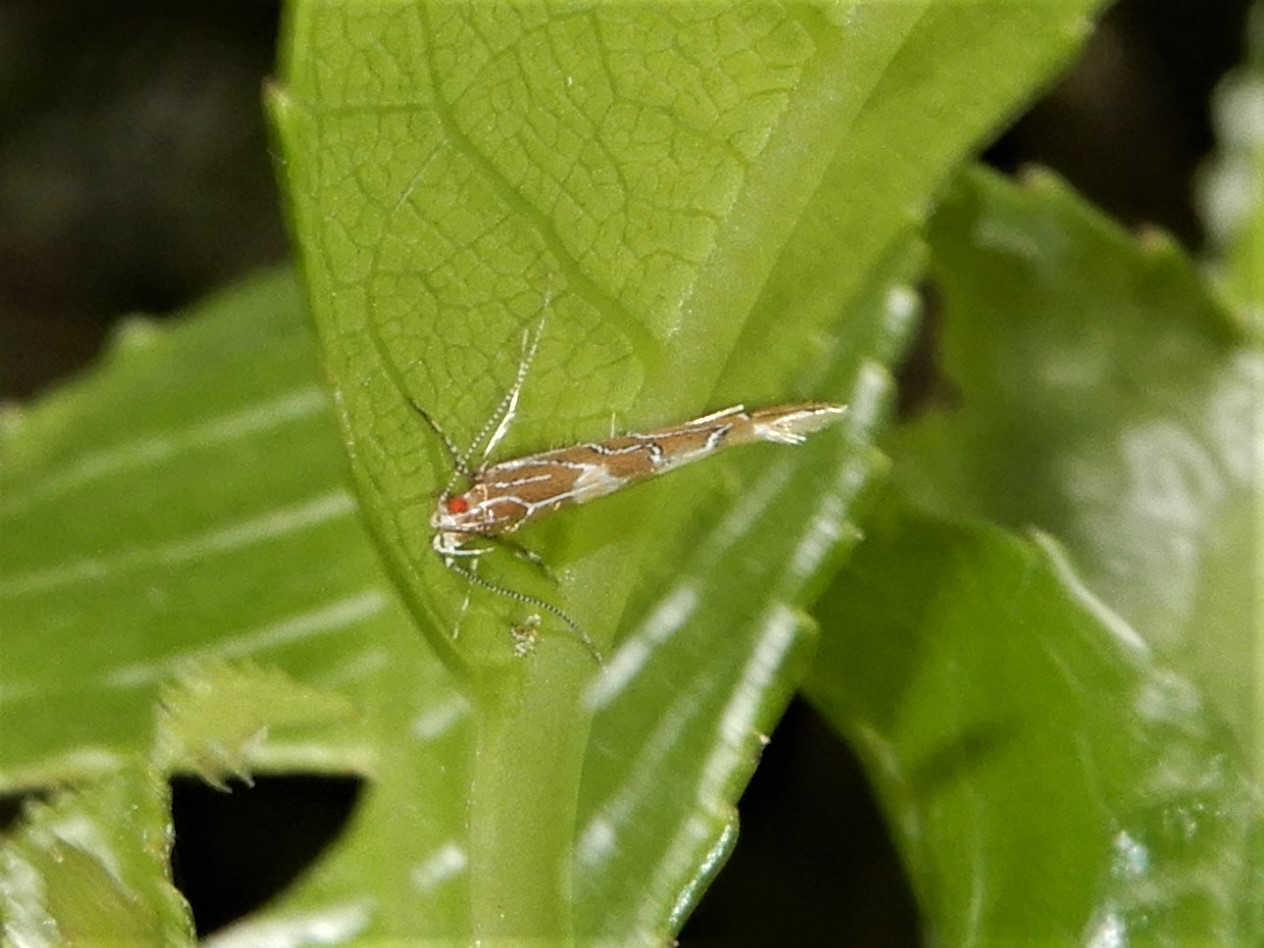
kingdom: Animalia
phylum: Arthropoda
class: Insecta
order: Lepidoptera
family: Cosmopterigidae
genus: Pyroderces
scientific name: Pyroderces apparitella
